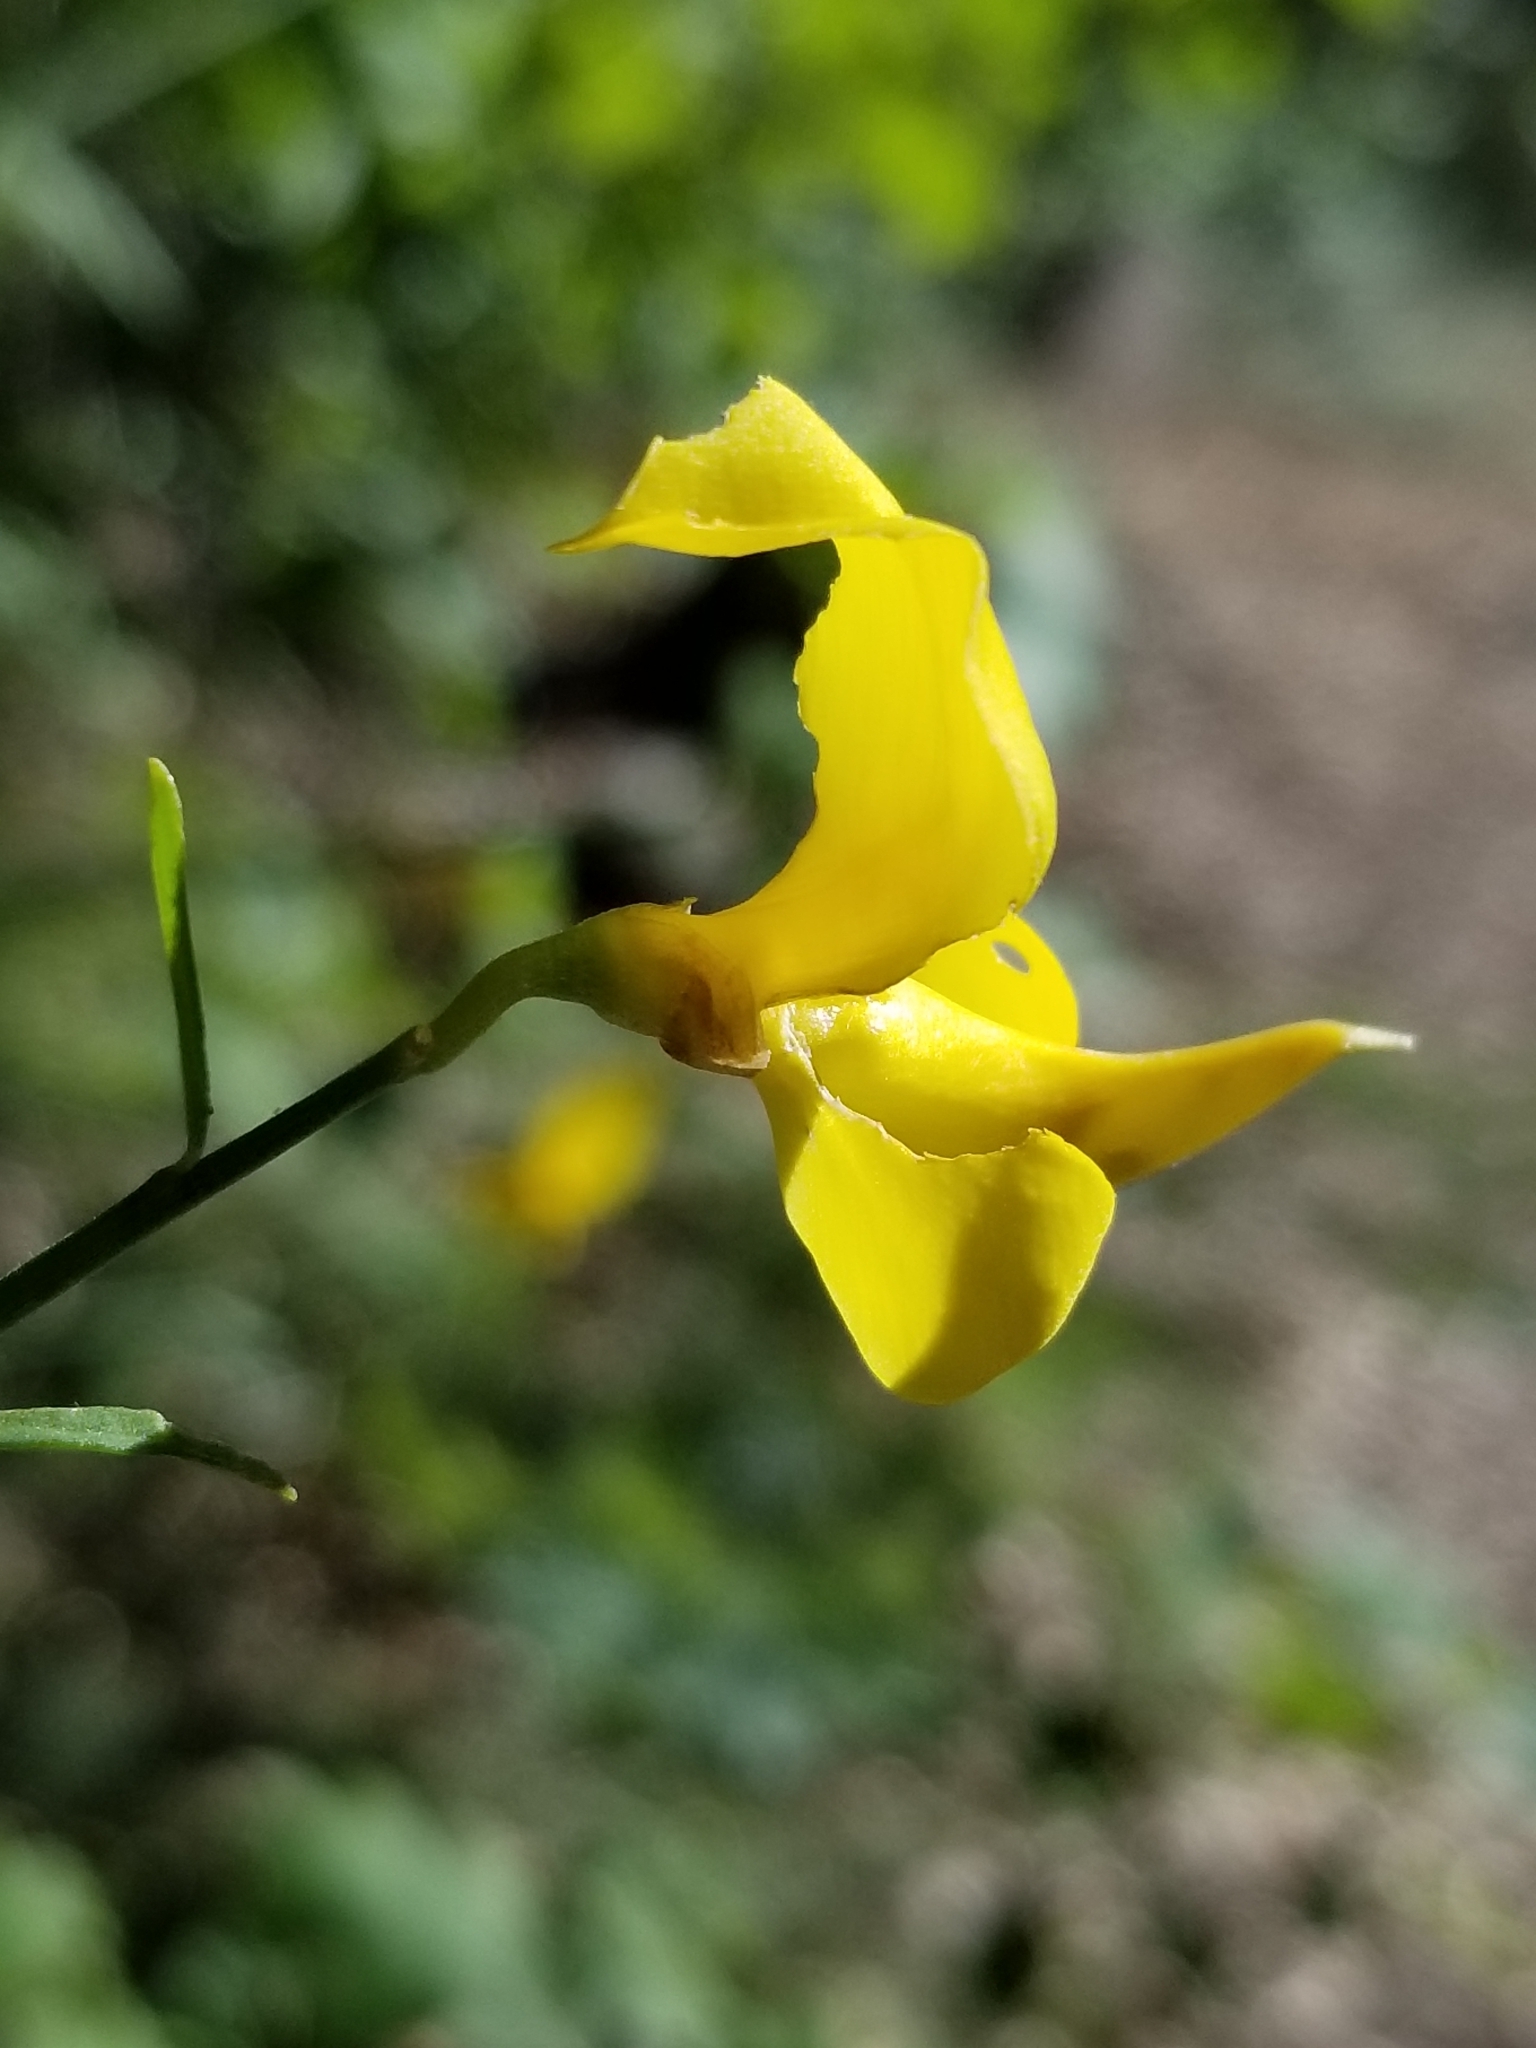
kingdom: Plantae
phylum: Tracheophyta
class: Magnoliopsida
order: Fabales
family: Fabaceae
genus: Spartium
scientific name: Spartium junceum
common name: Spanish broom
